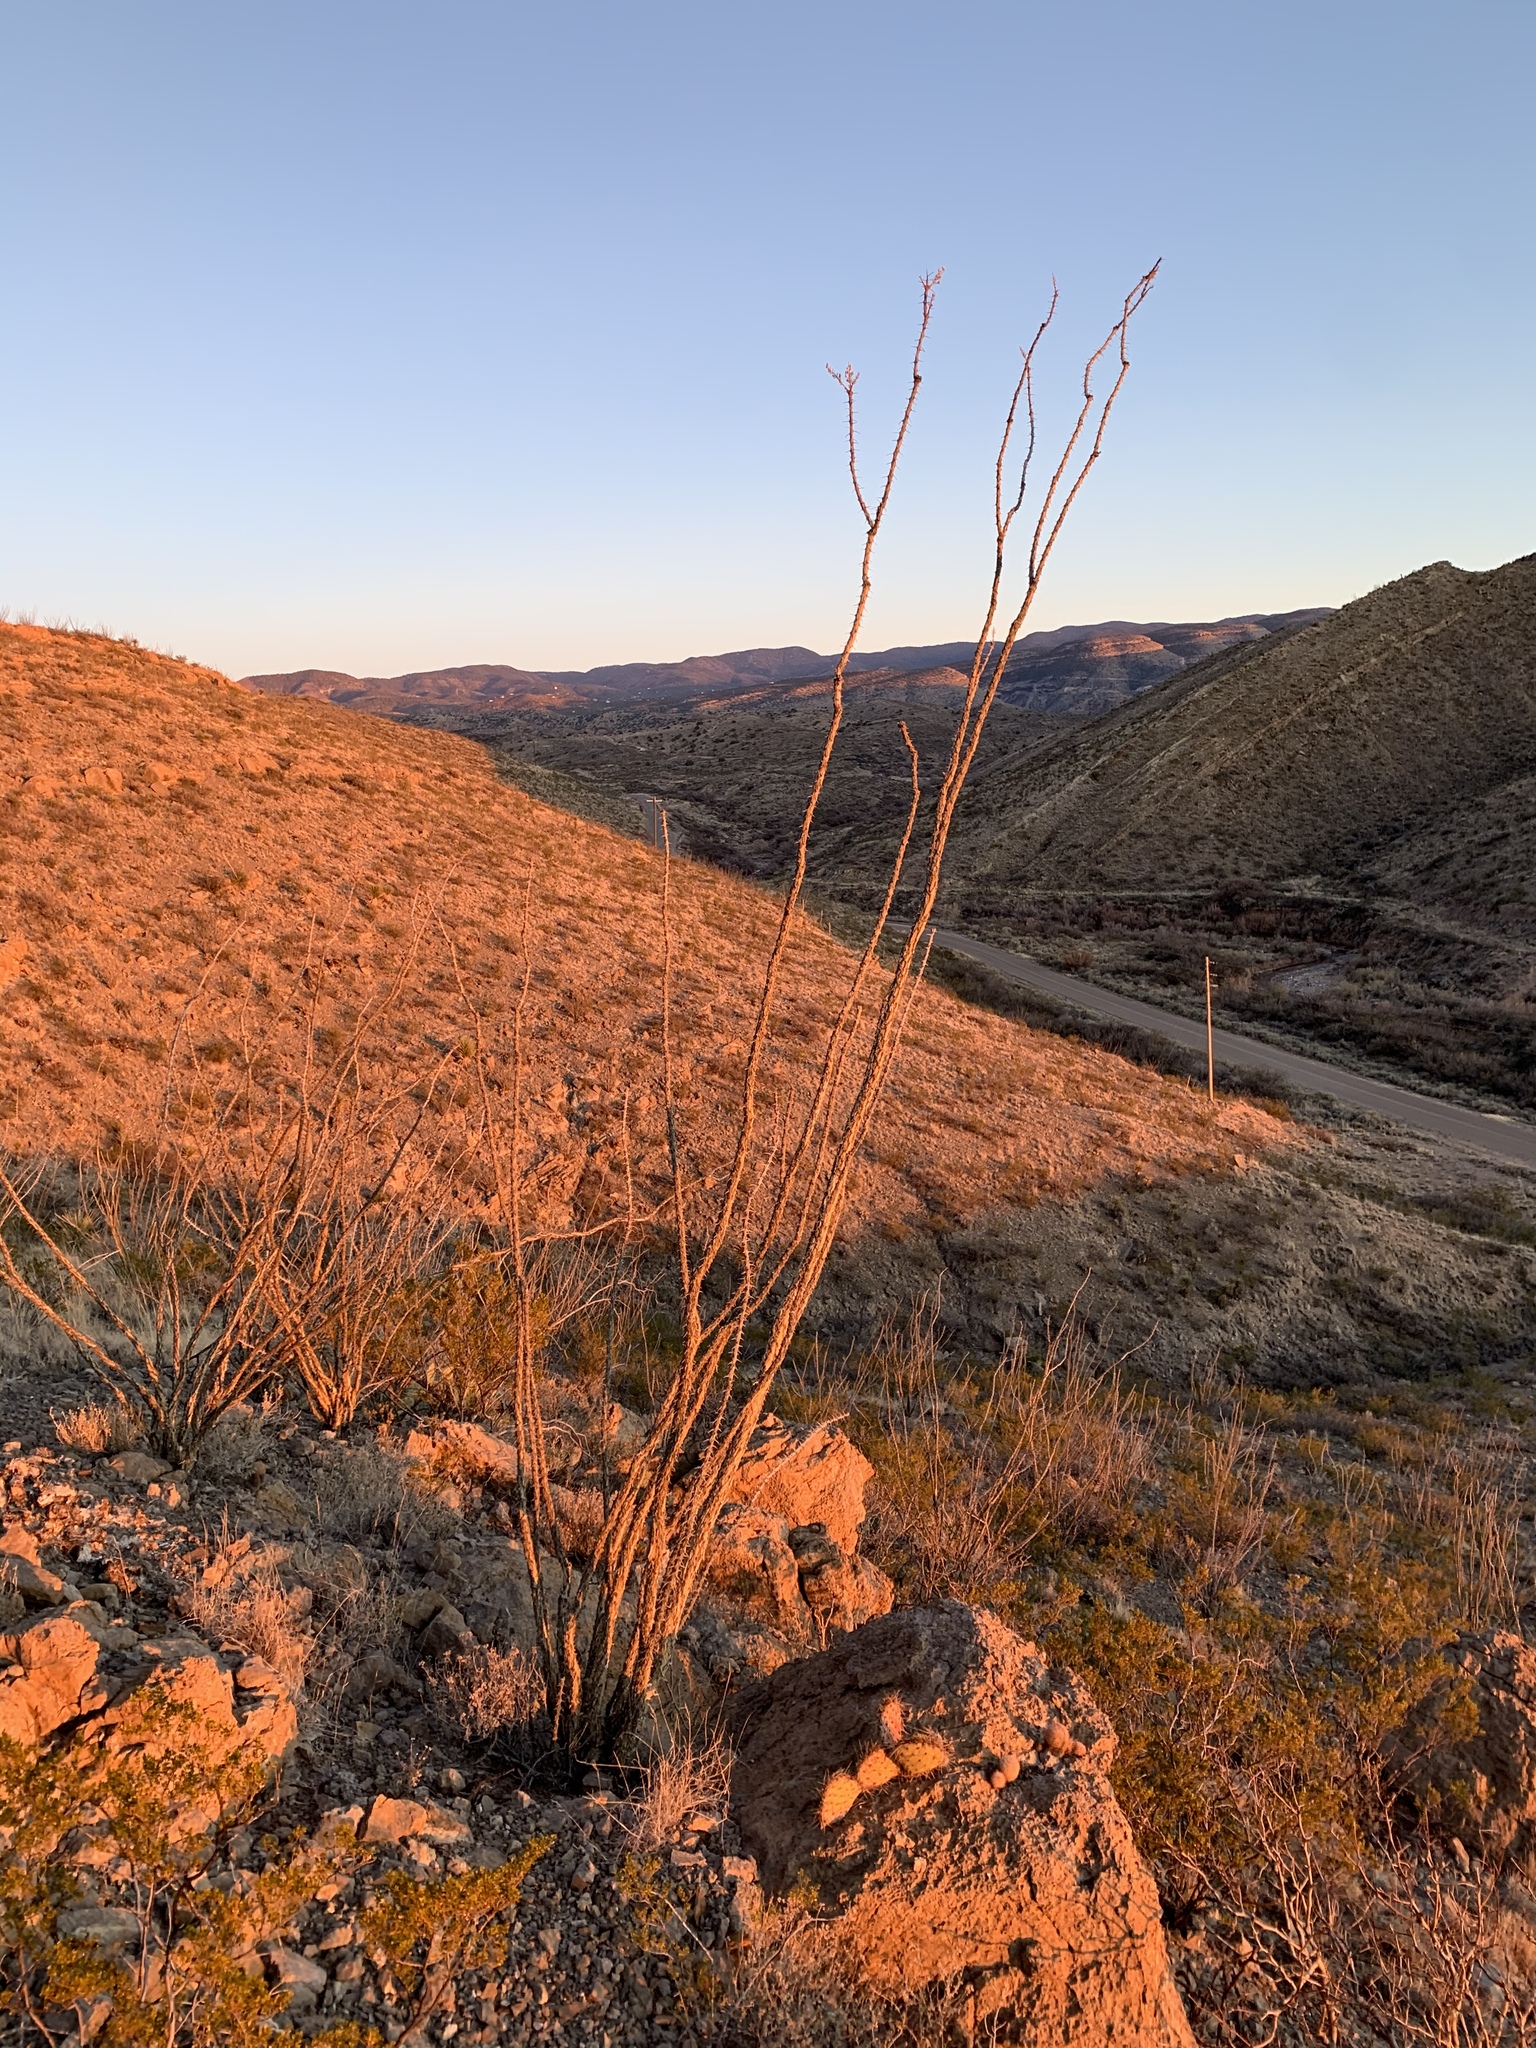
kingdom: Plantae
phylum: Tracheophyta
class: Magnoliopsida
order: Ericales
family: Fouquieriaceae
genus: Fouquieria
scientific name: Fouquieria splendens
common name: Vine-cactus
